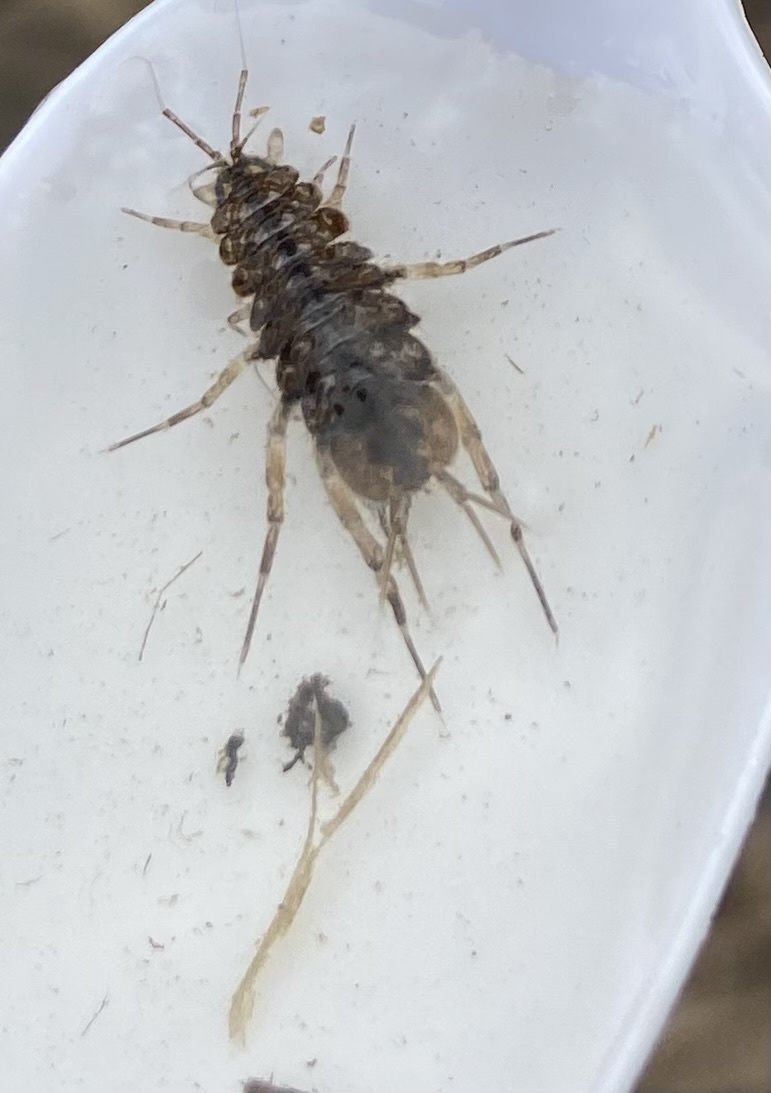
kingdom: Animalia
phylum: Arthropoda
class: Malacostraca
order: Isopoda
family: Asellidae
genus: Asellus
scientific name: Asellus aquaticus
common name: Water hog lice/slaters
